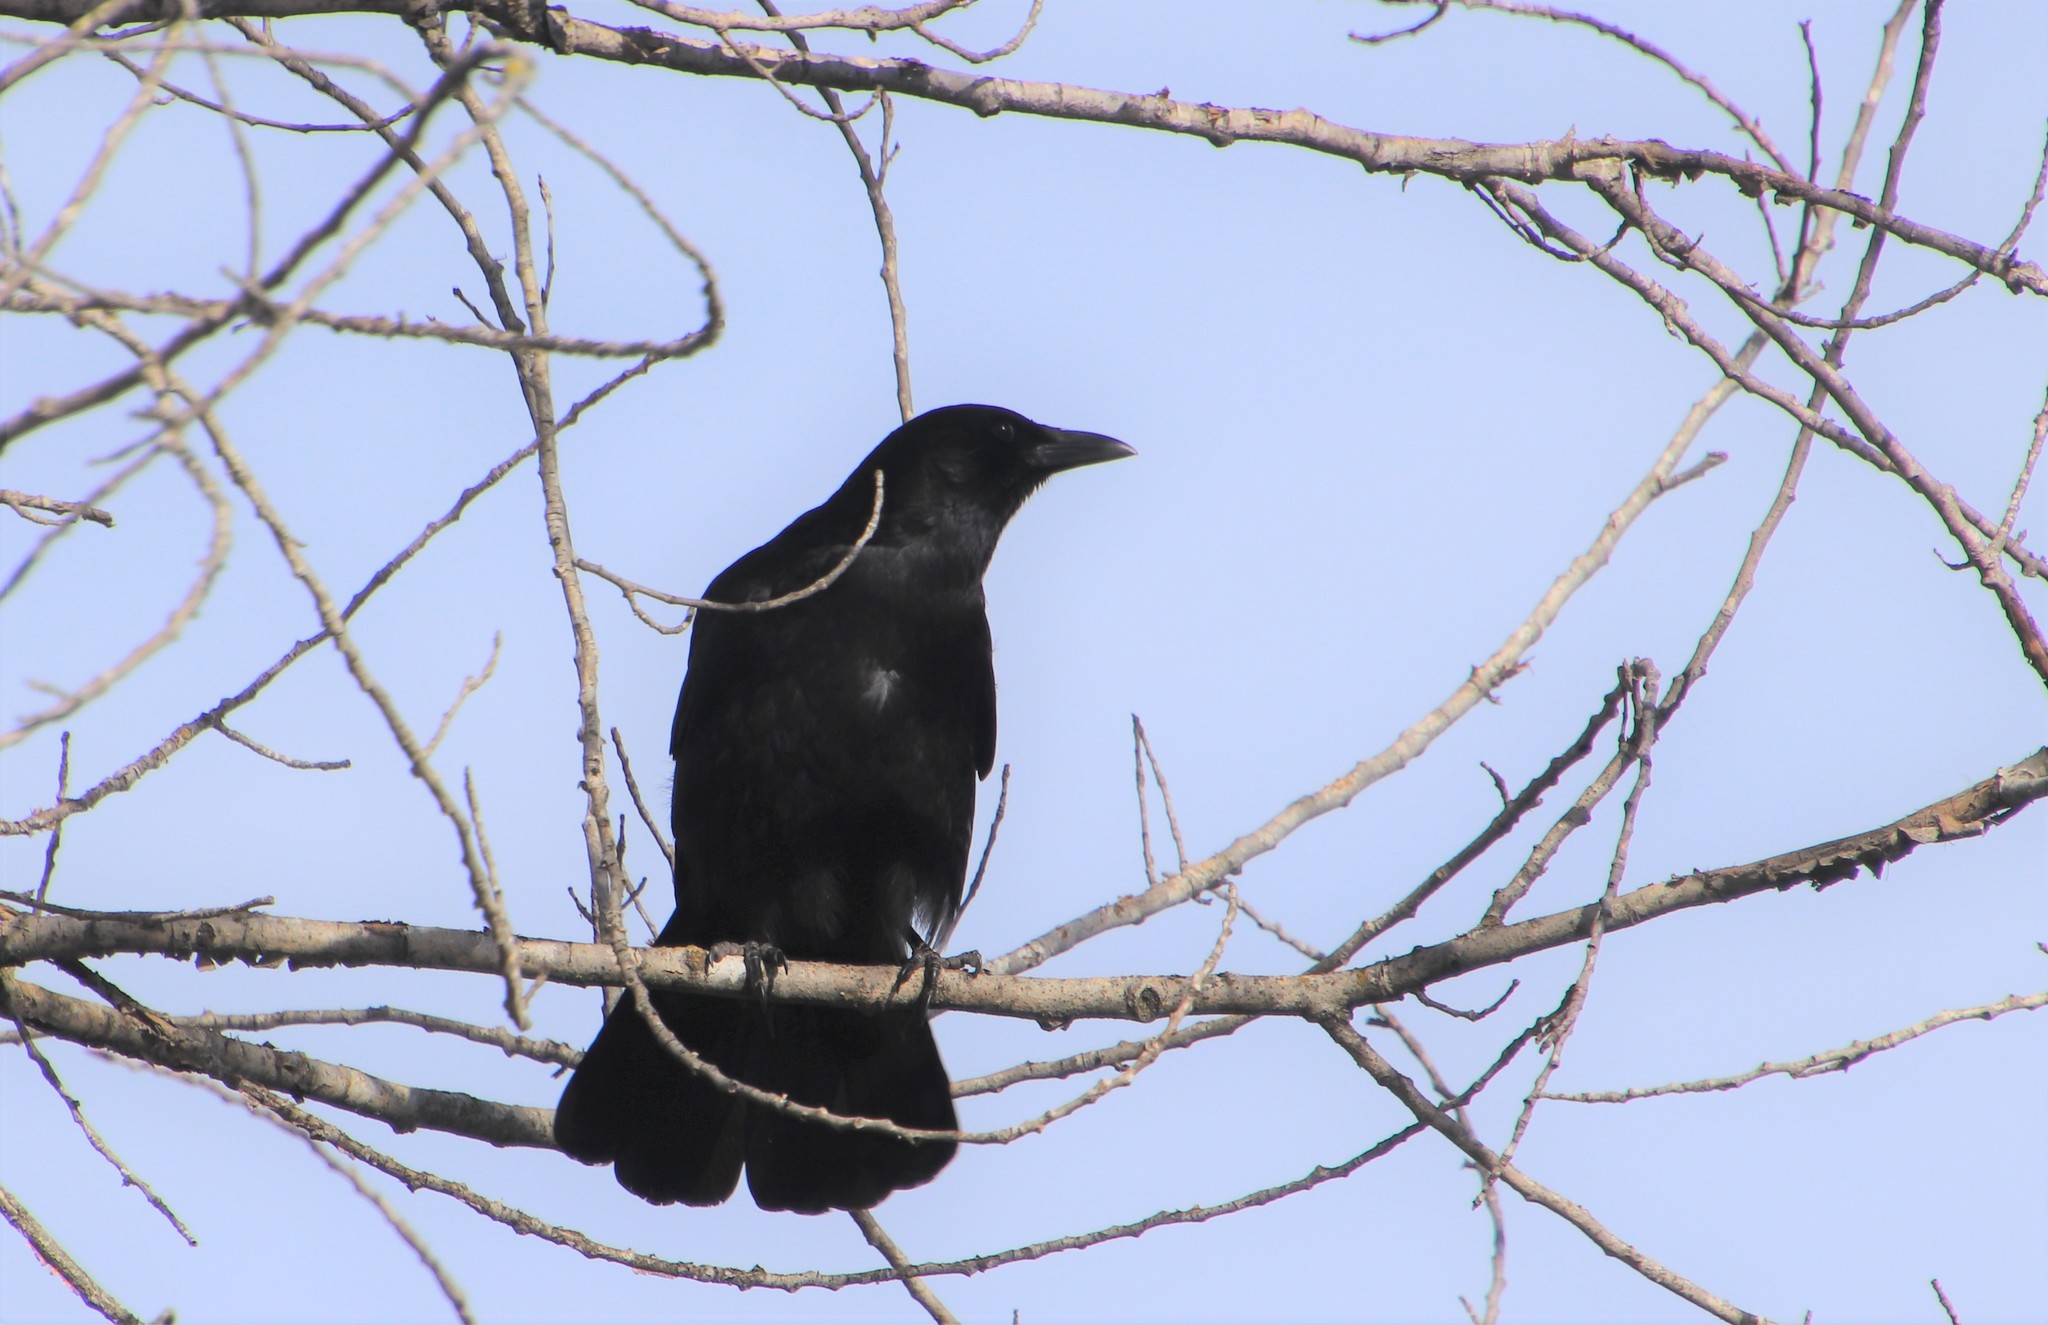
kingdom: Animalia
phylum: Chordata
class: Aves
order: Passeriformes
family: Corvidae
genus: Corvus
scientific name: Corvus brachyrhynchos
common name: American crow
